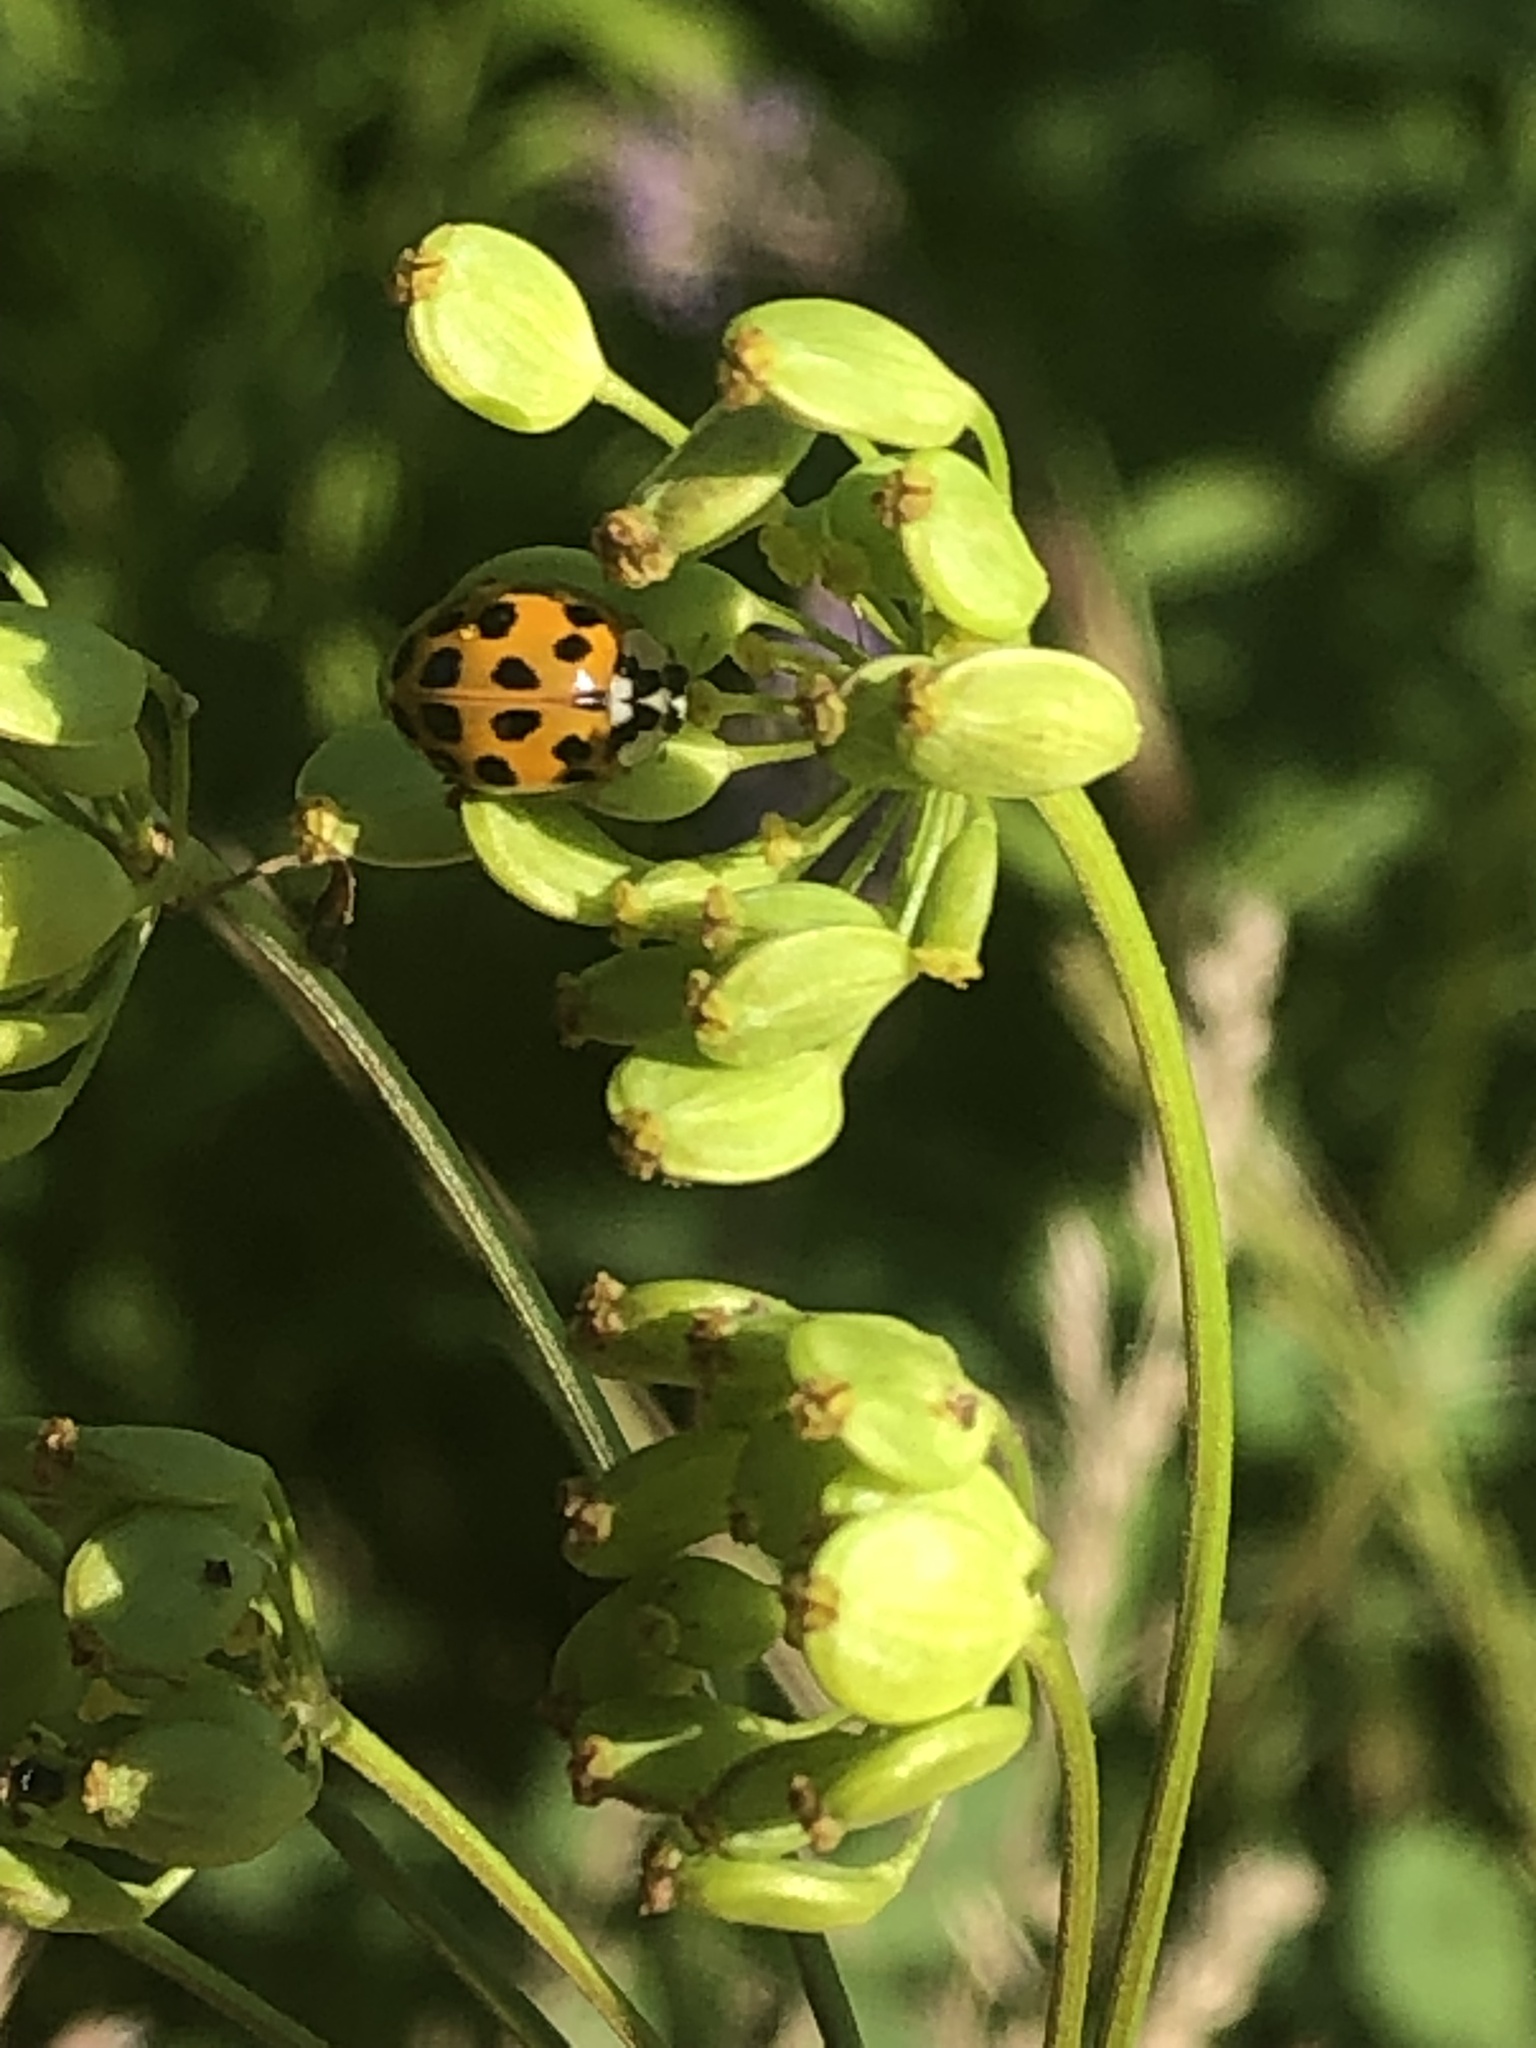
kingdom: Animalia
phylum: Arthropoda
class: Insecta
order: Coleoptera
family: Coccinellidae
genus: Harmonia
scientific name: Harmonia axyridis
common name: Harlequin ladybird
